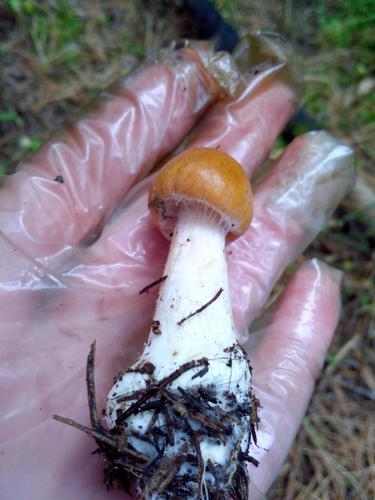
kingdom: Fungi
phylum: Basidiomycota
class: Agaricomycetes
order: Agaricales
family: Cortinariaceae
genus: Cortinarius
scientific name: Cortinarius
